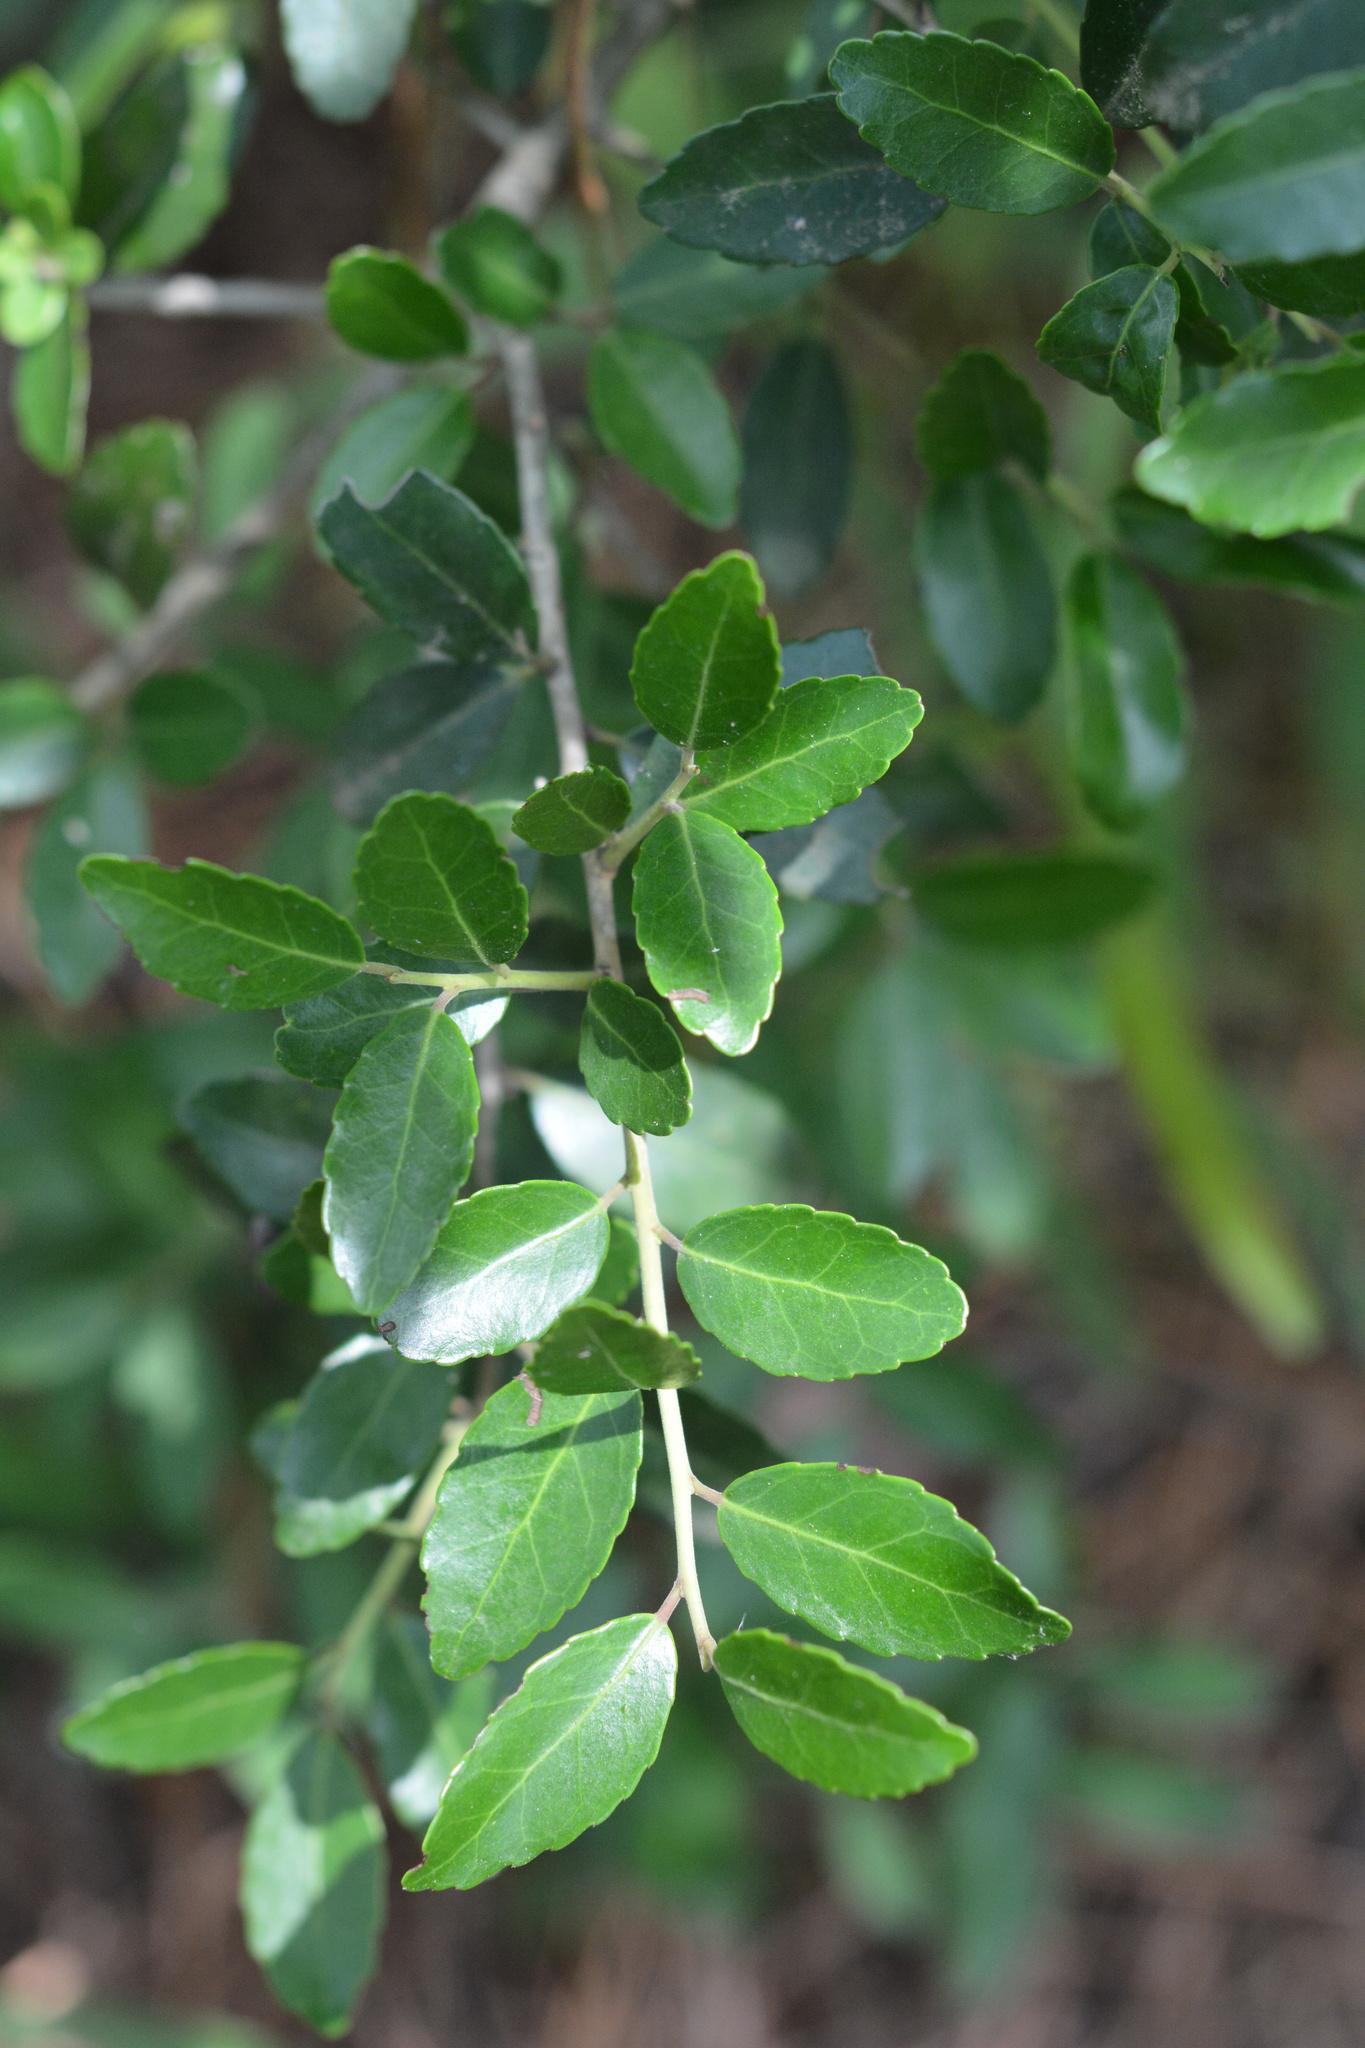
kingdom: Plantae
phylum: Tracheophyta
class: Magnoliopsida
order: Aquifoliales
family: Aquifoliaceae
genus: Ilex
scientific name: Ilex vomitoria
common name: Yaupon holly
